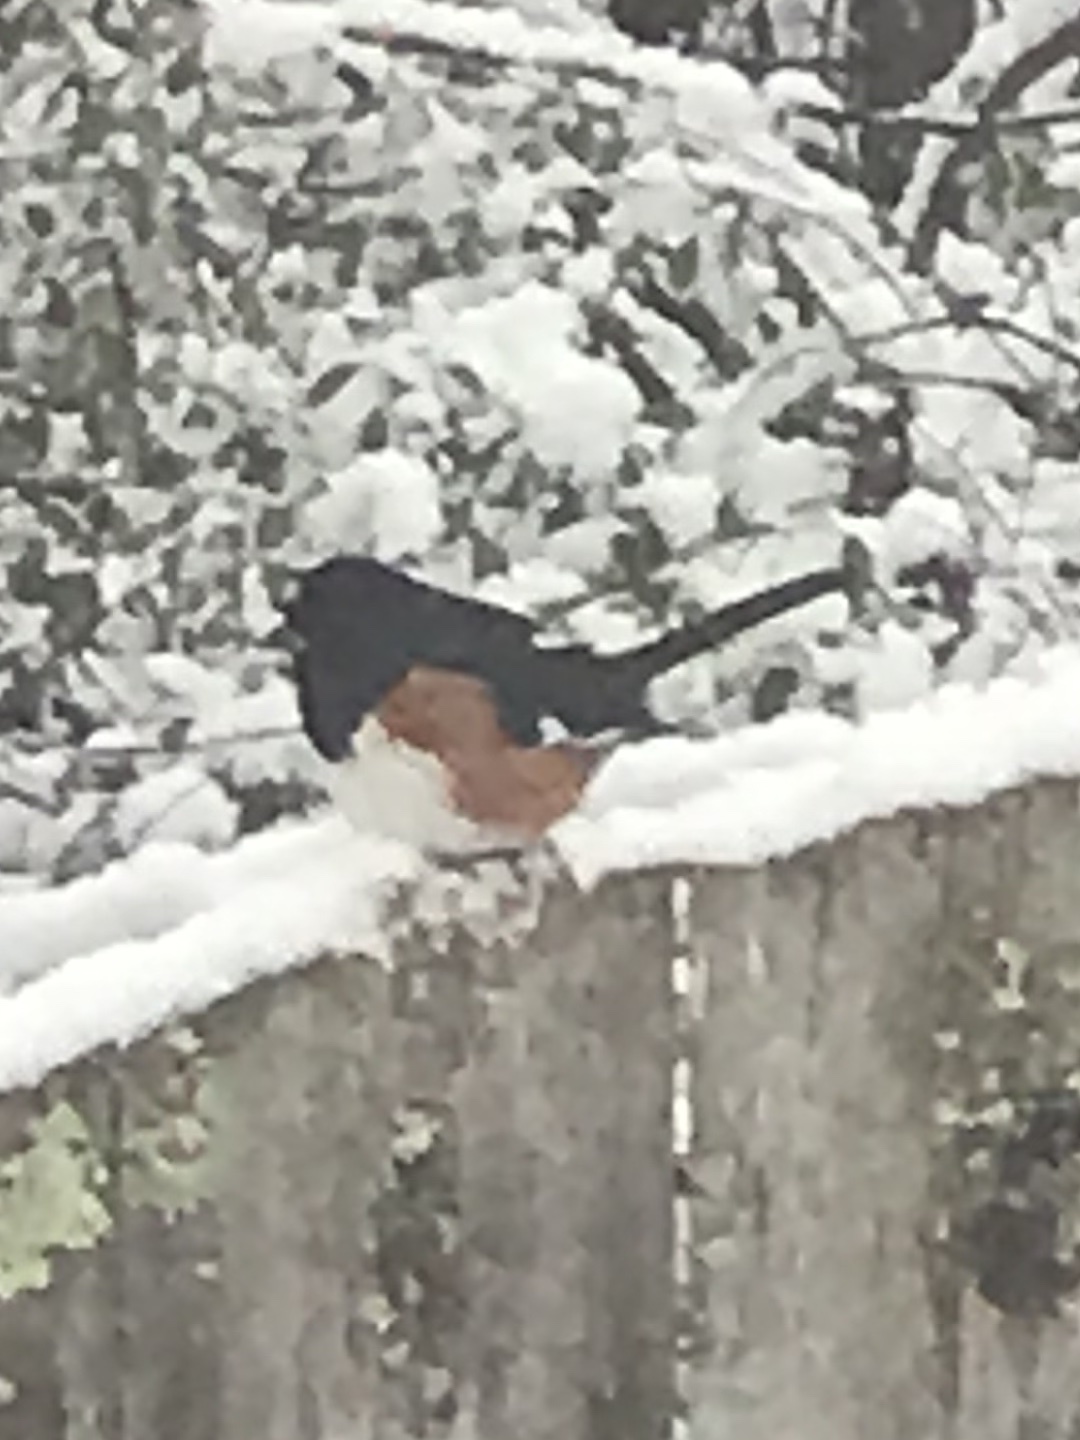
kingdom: Animalia
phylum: Chordata
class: Aves
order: Passeriformes
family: Passerellidae
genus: Pipilo
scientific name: Pipilo erythrophthalmus
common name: Eastern towhee
